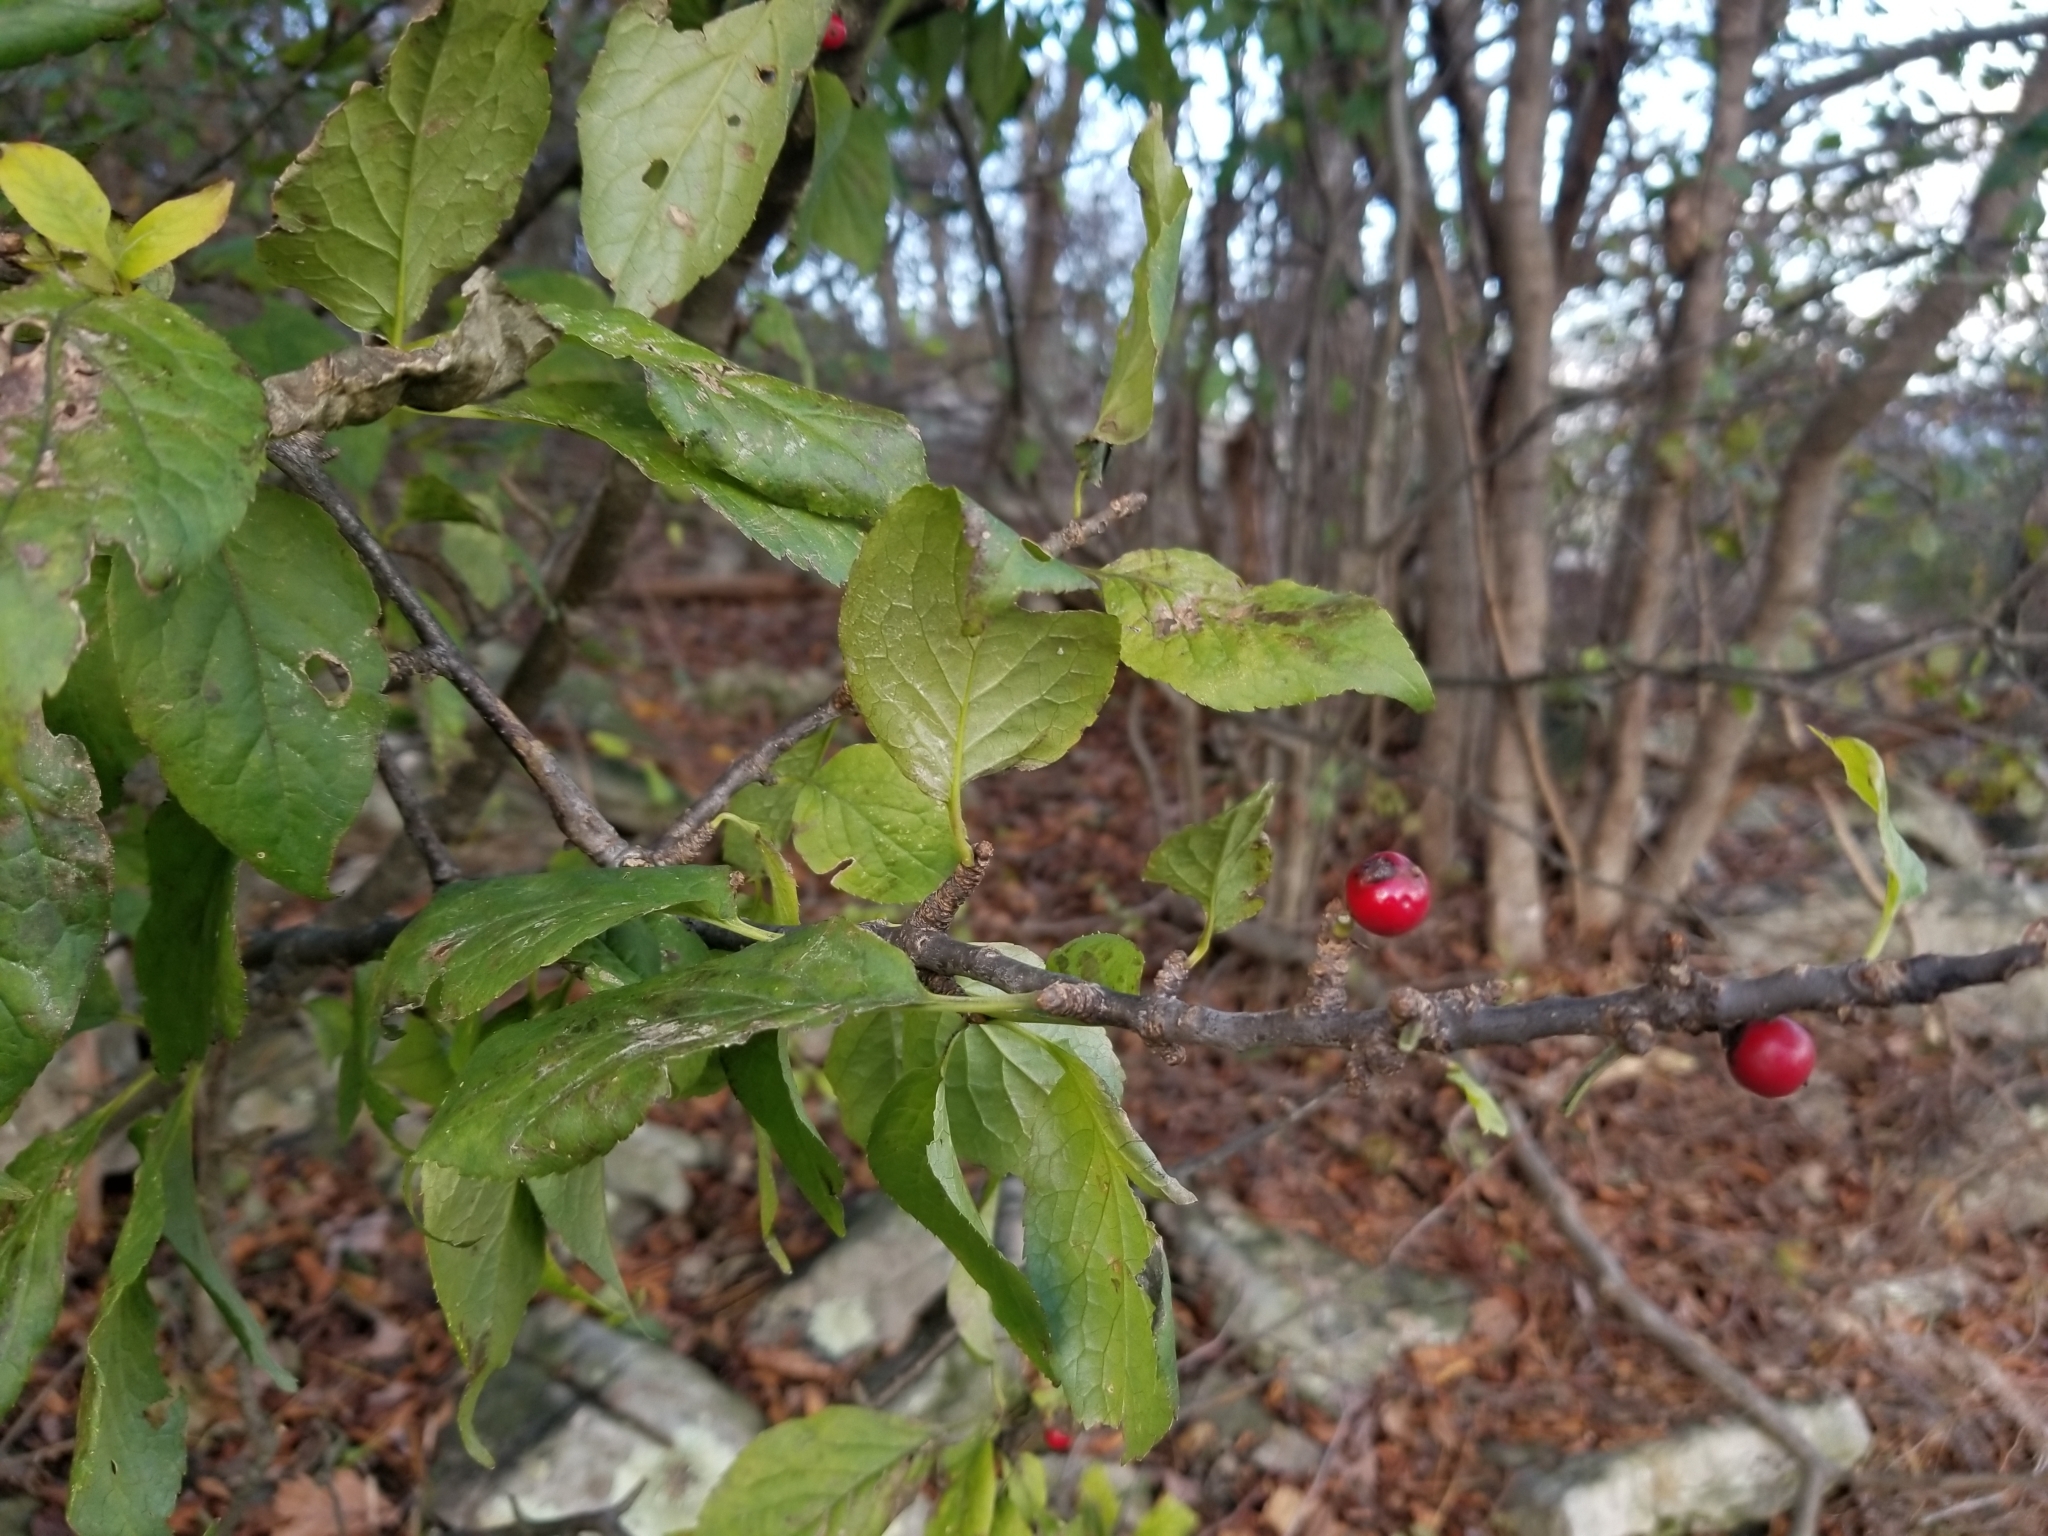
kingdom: Plantae
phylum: Tracheophyta
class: Magnoliopsida
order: Aquifoliales
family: Aquifoliaceae
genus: Ilex
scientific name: Ilex montana
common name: Mountain winterberry
